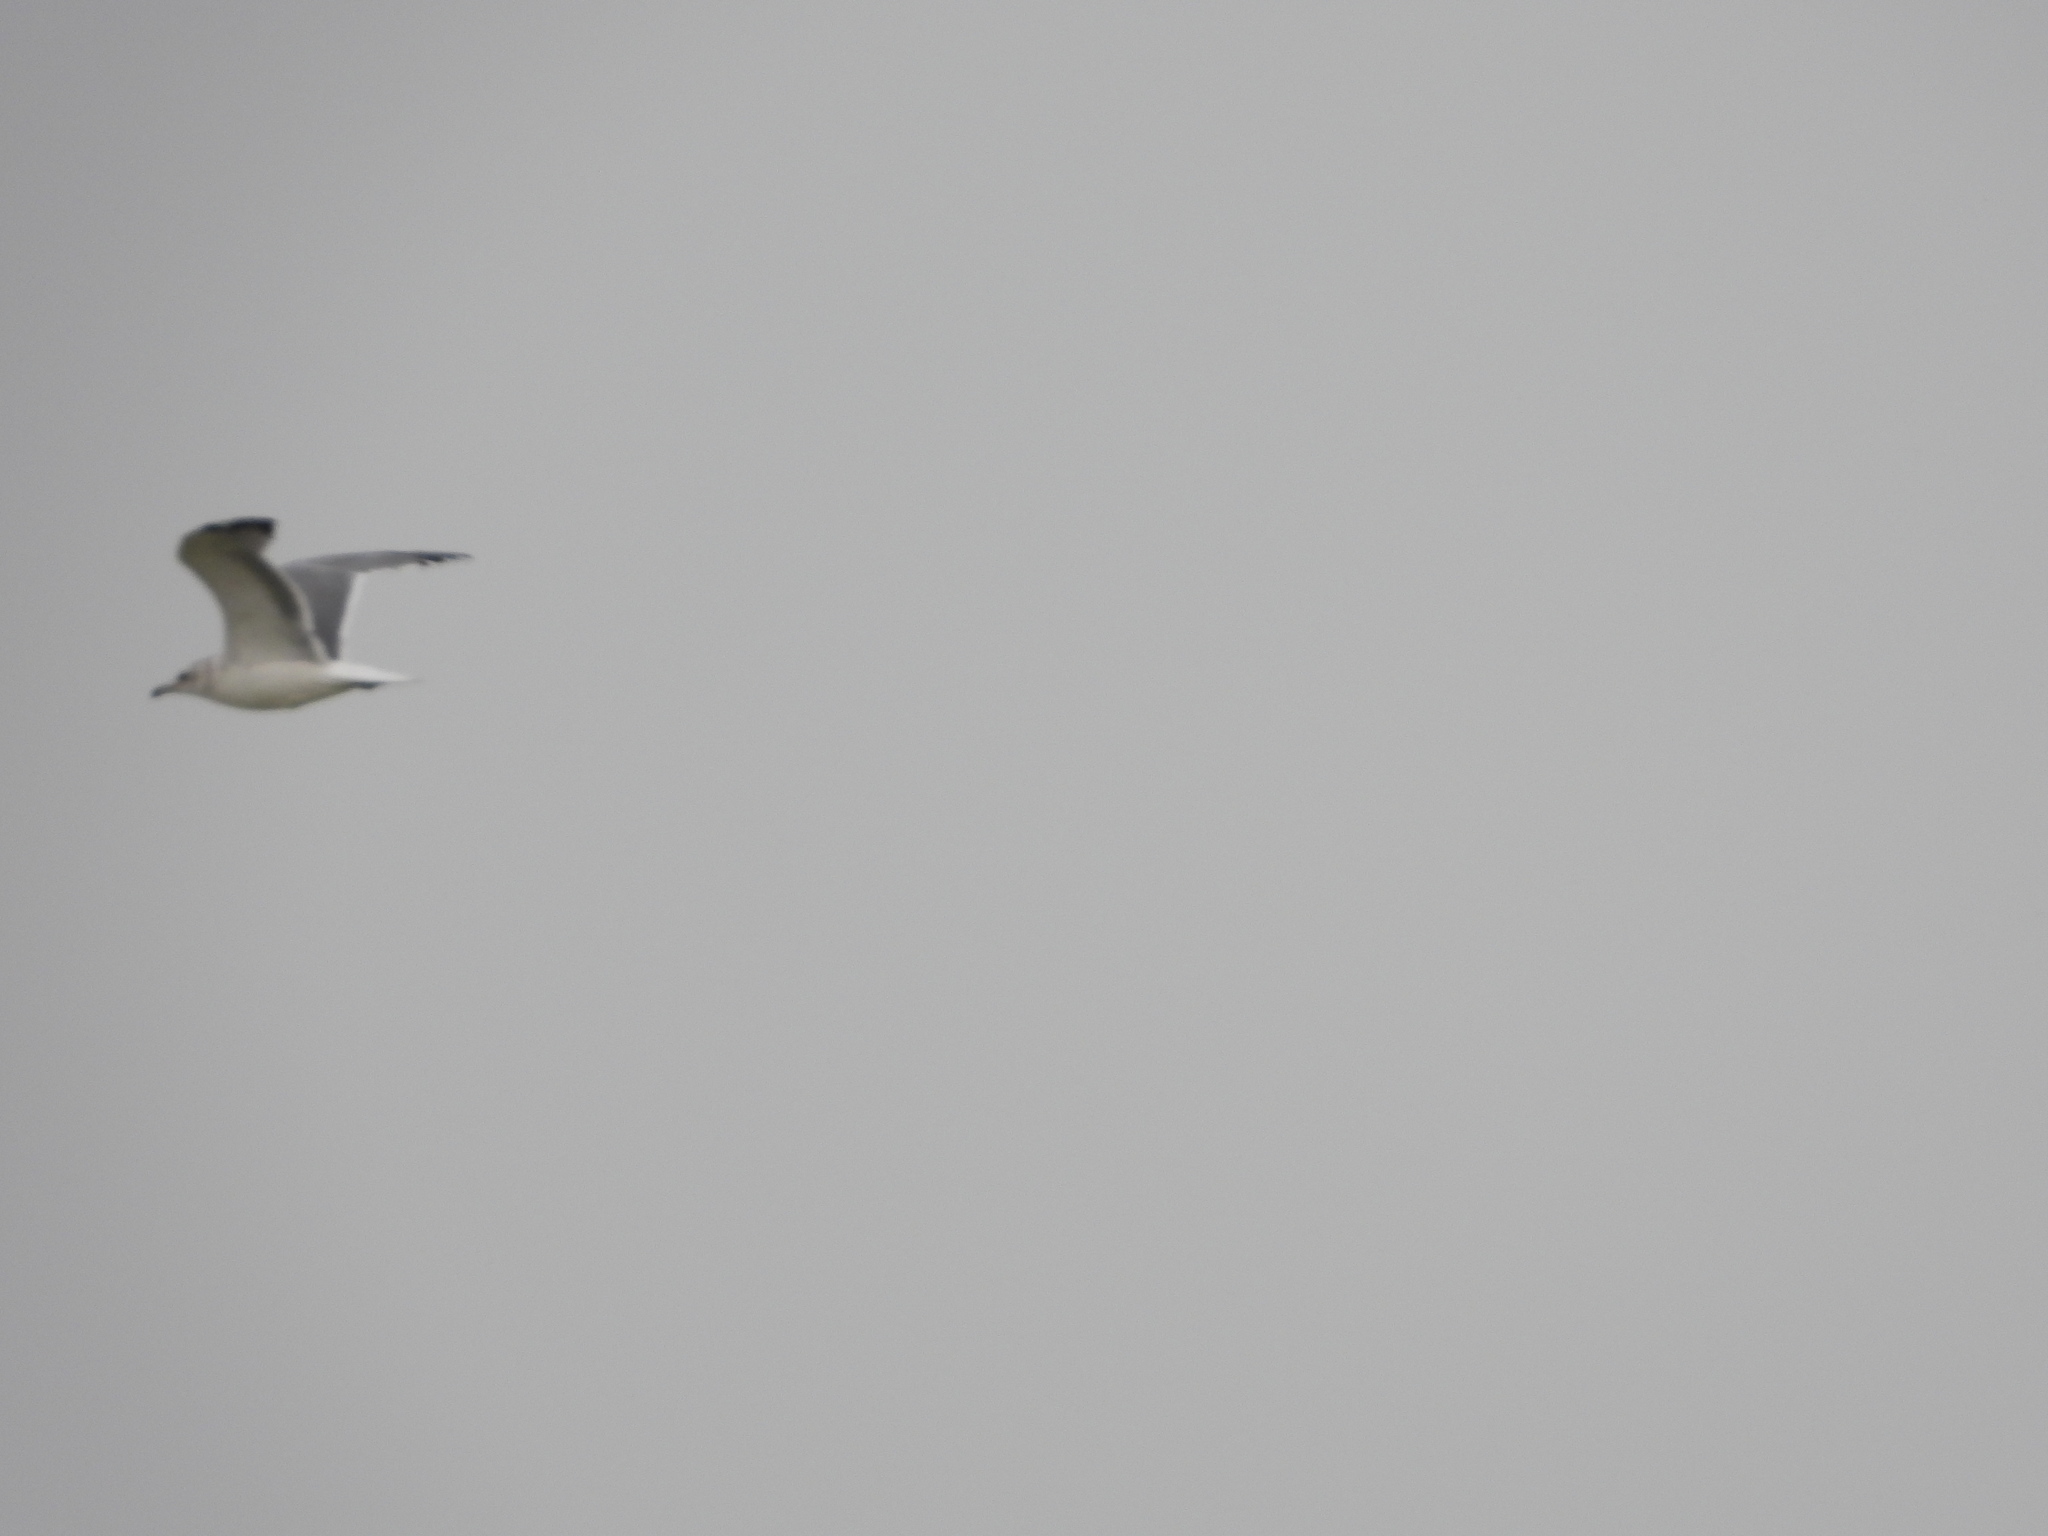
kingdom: Animalia
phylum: Chordata
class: Aves
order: Charadriiformes
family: Laridae
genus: Larus
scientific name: Larus californicus
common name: California gull
